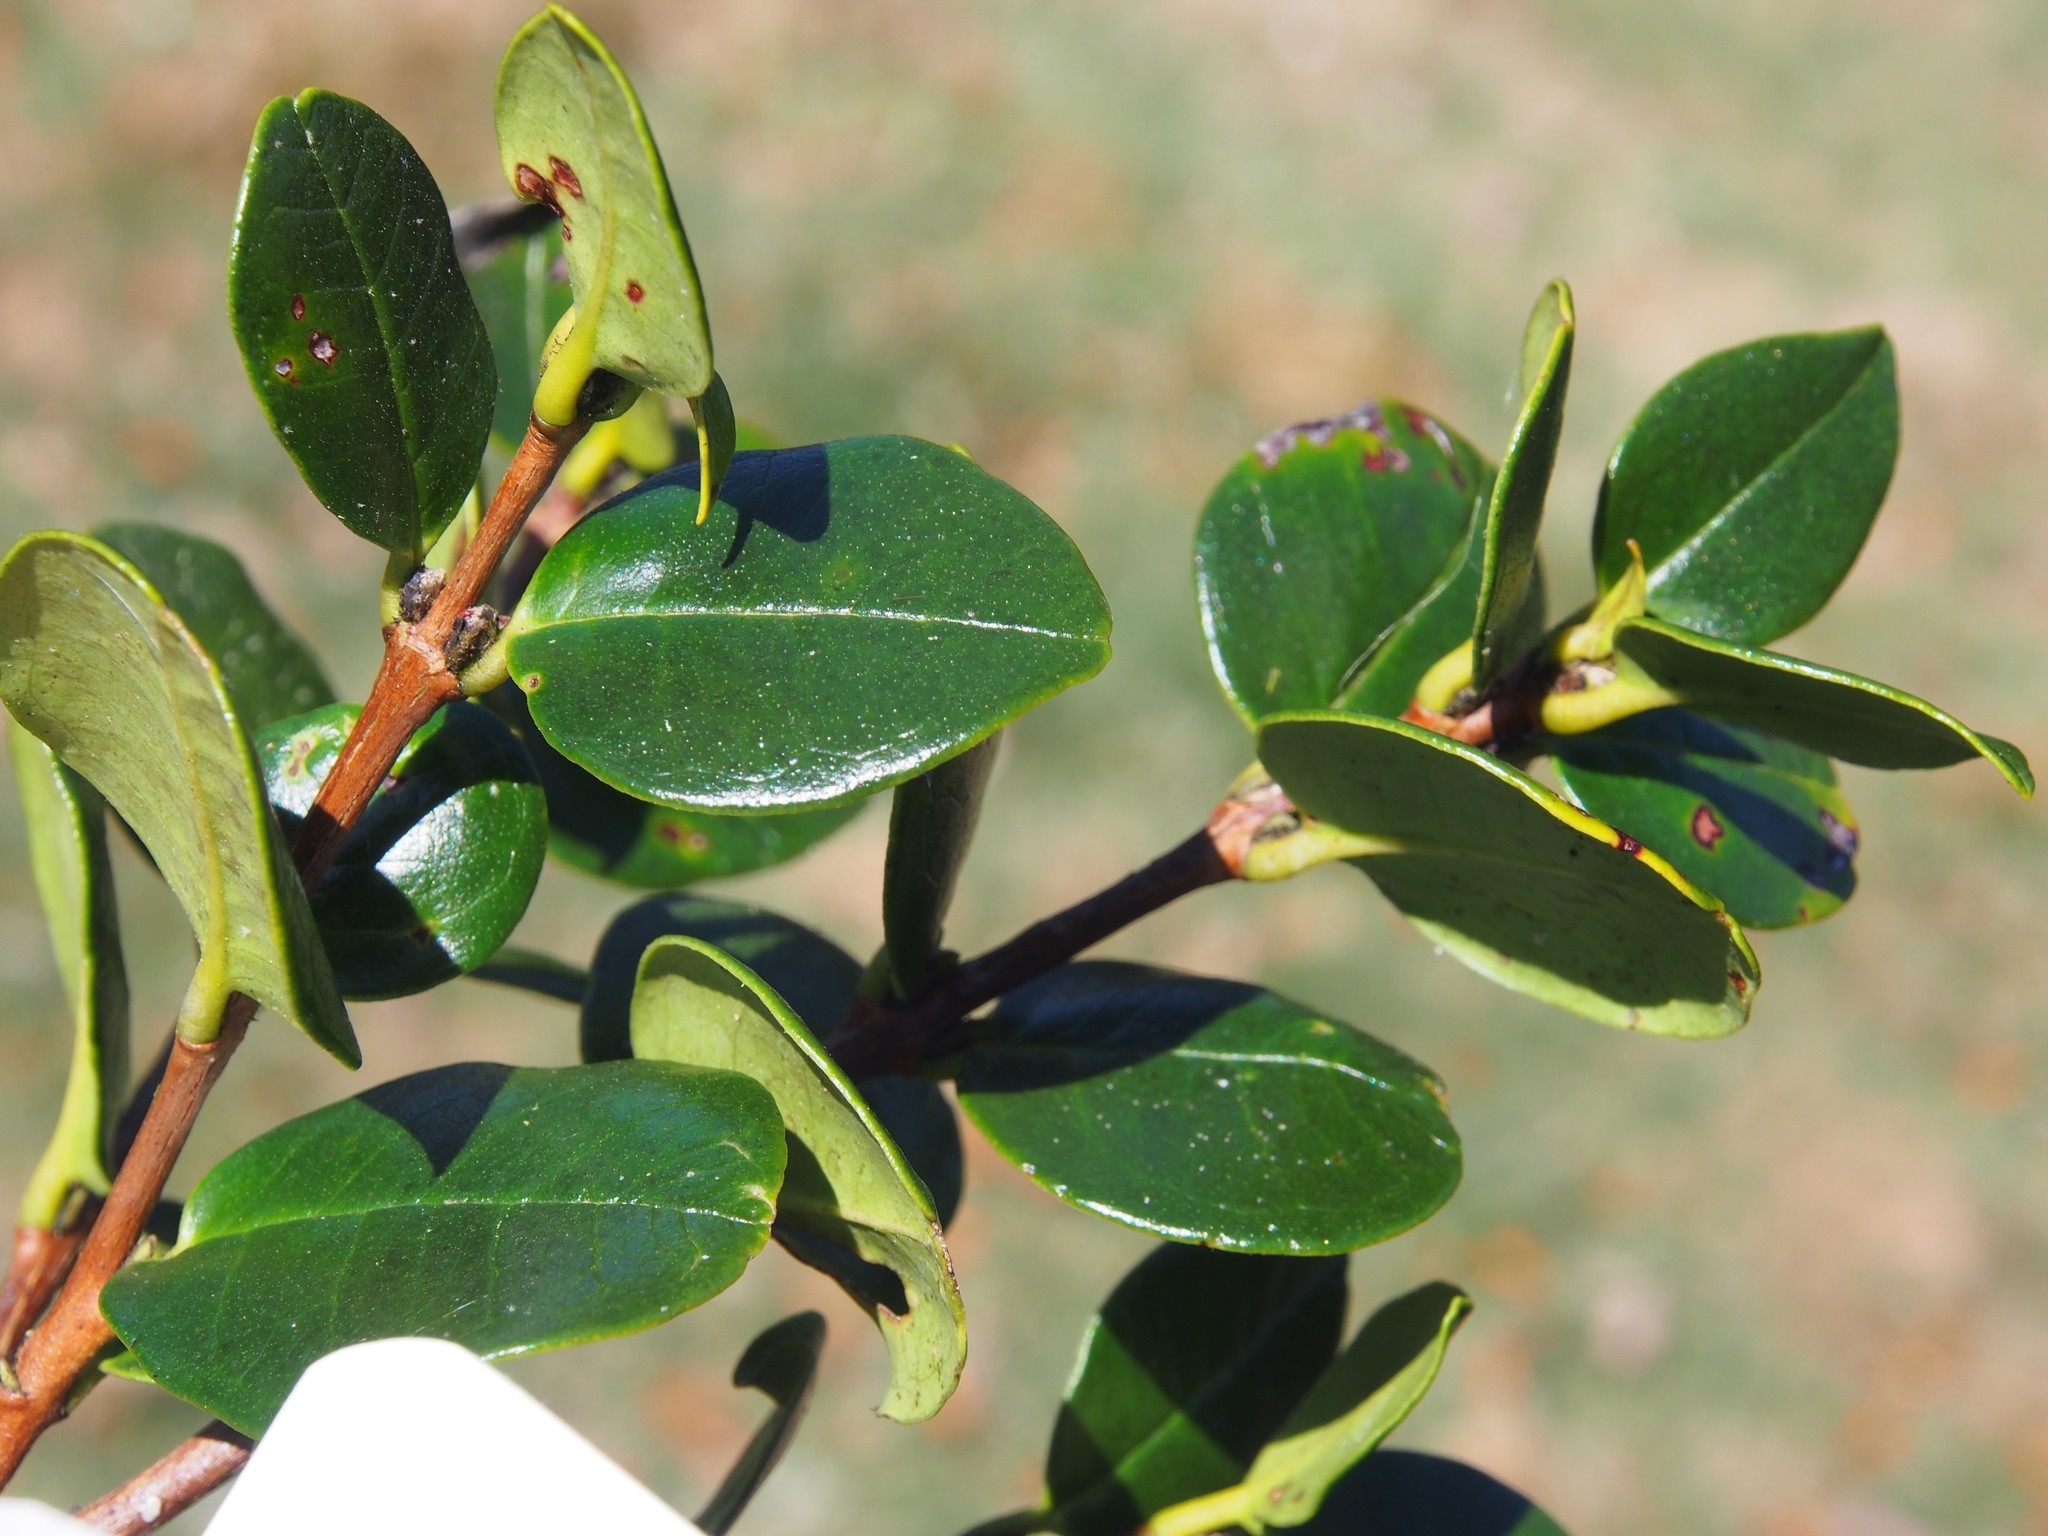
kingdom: Plantae
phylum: Tracheophyta
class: Magnoliopsida
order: Myrtales
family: Myrtaceae
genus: Myrcianthes
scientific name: Myrcianthes storkii
